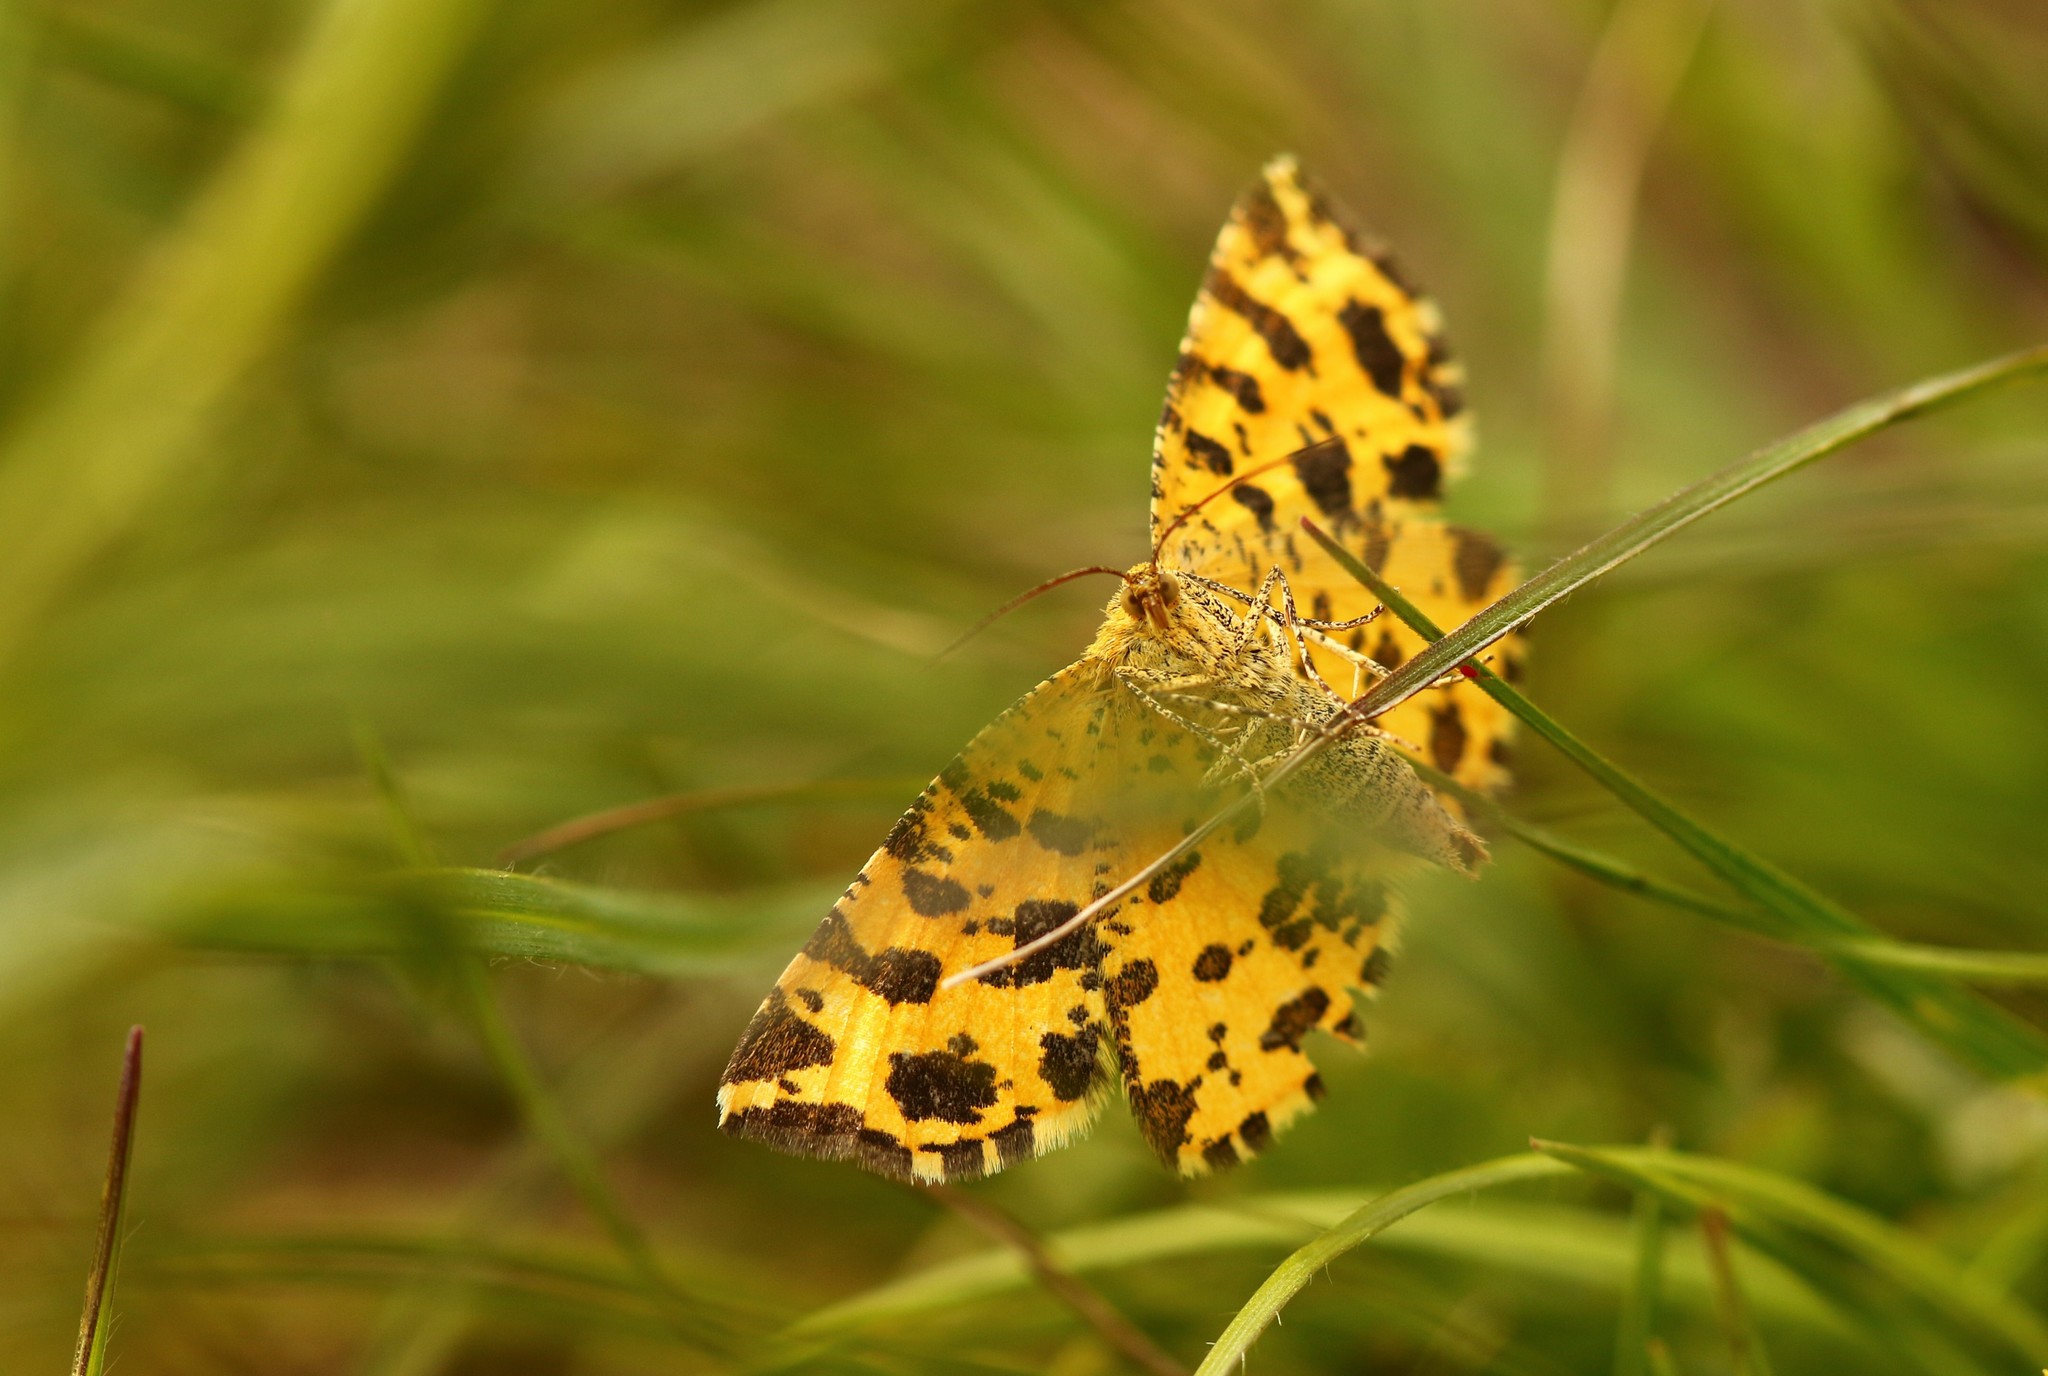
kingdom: Animalia
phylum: Arthropoda
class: Insecta
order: Lepidoptera
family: Geometridae
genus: Pseudopanthera
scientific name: Pseudopanthera macularia
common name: Speckled yellow
